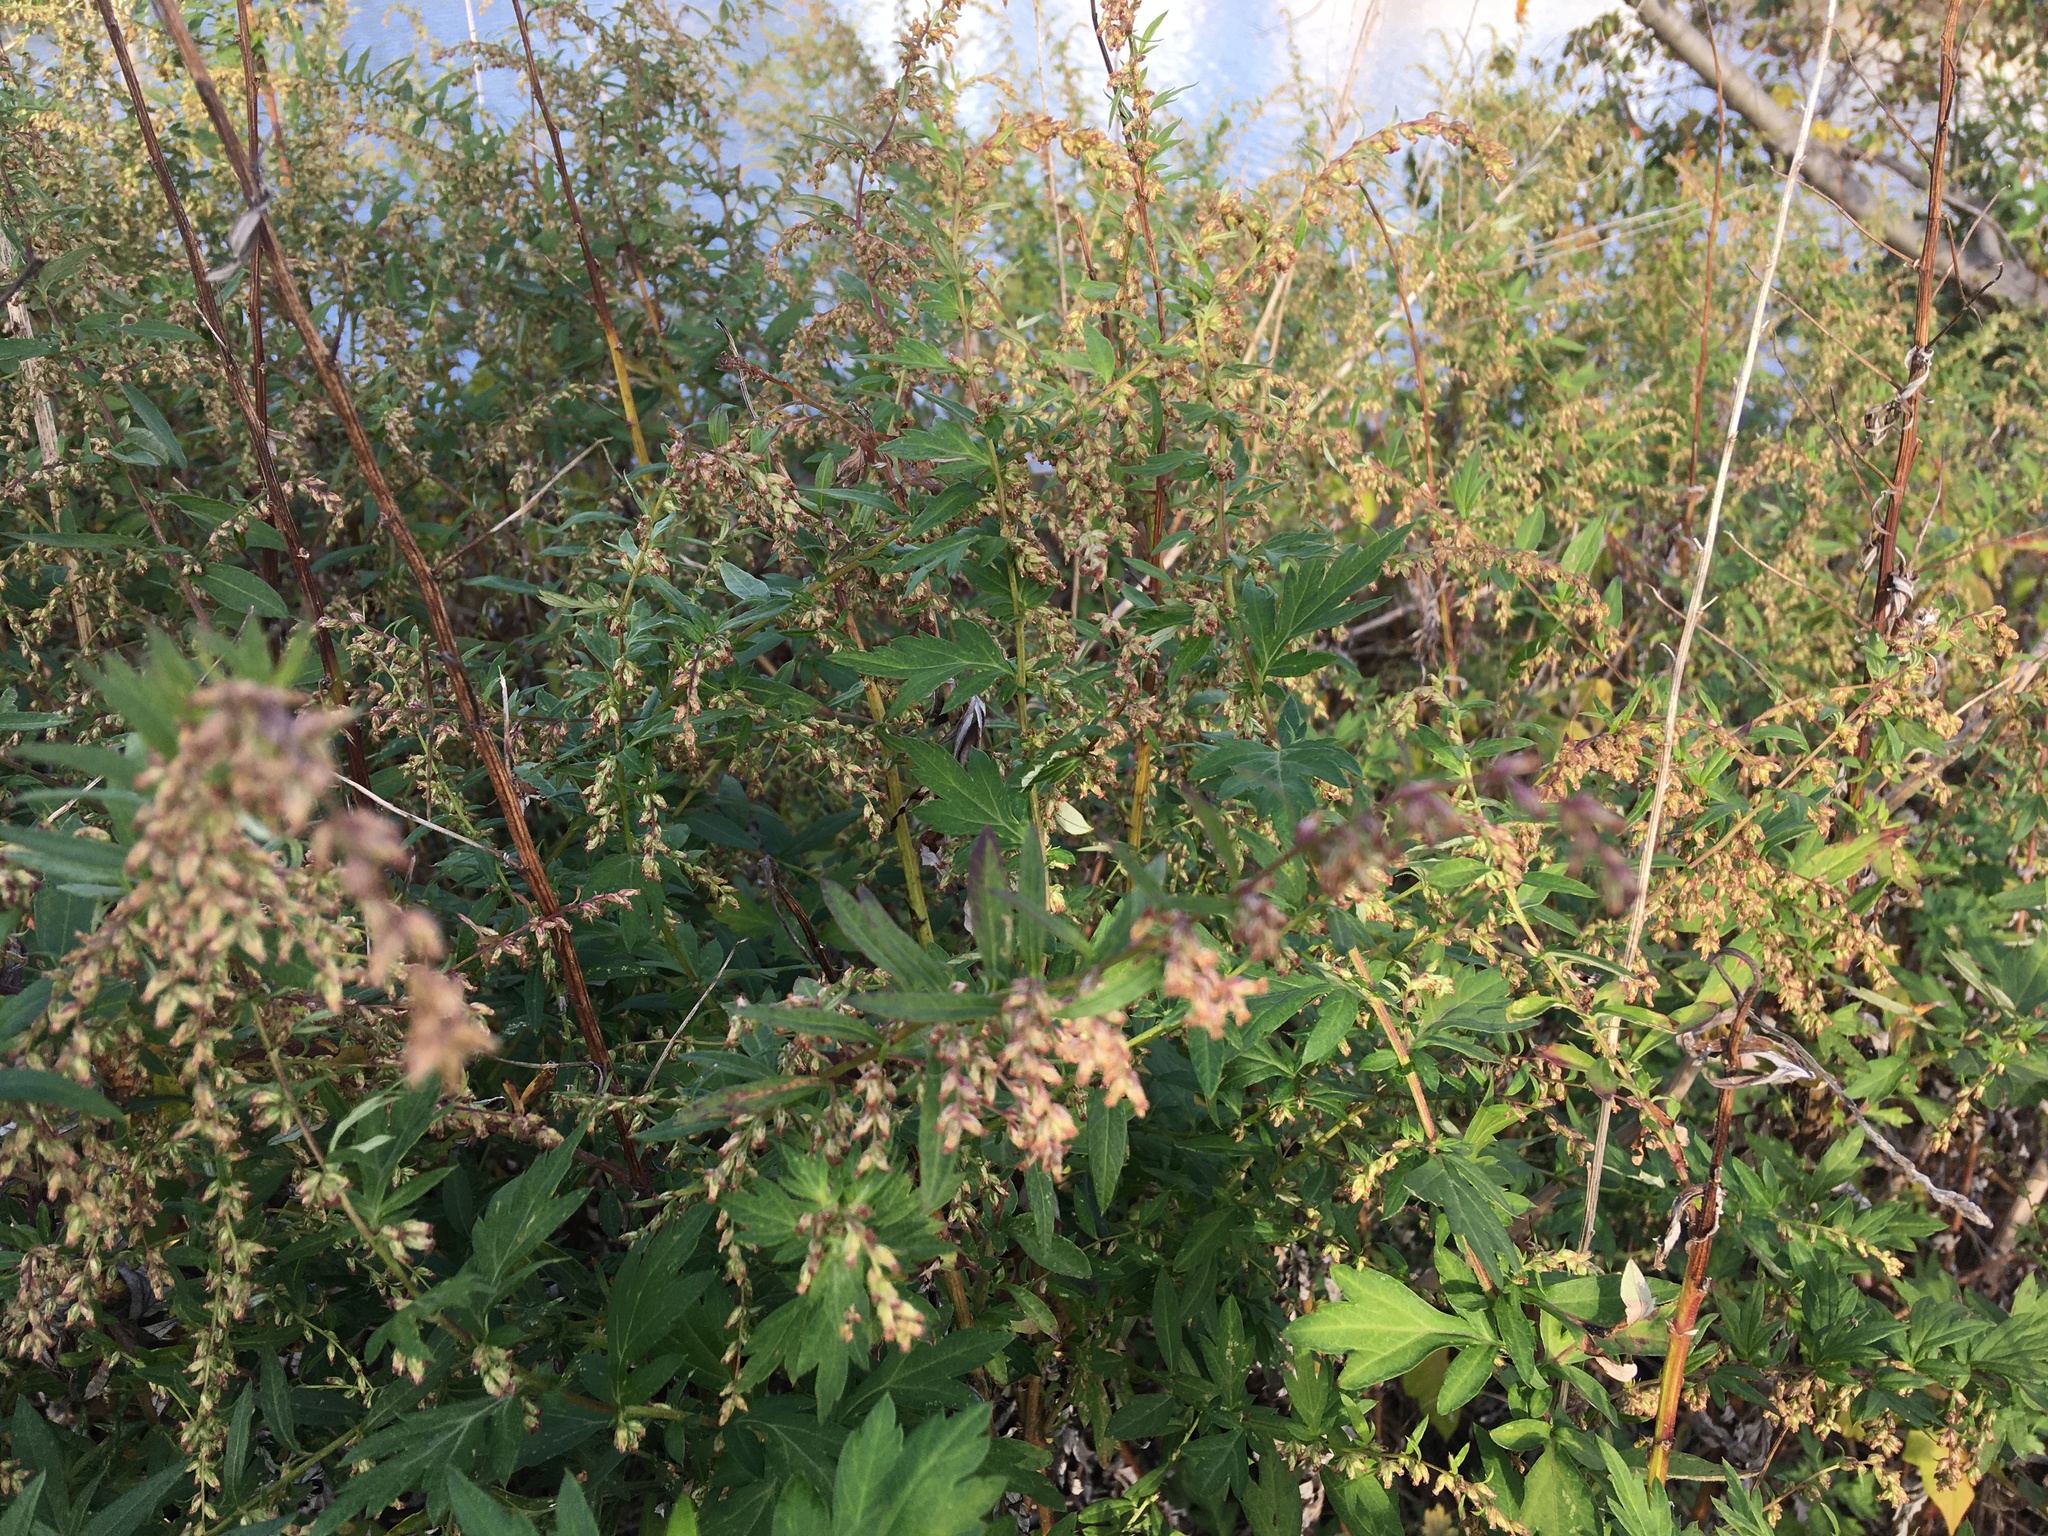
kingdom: Plantae
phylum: Tracheophyta
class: Magnoliopsida
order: Asterales
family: Asteraceae
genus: Artemisia
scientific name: Artemisia vulgaris
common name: Mugwort
